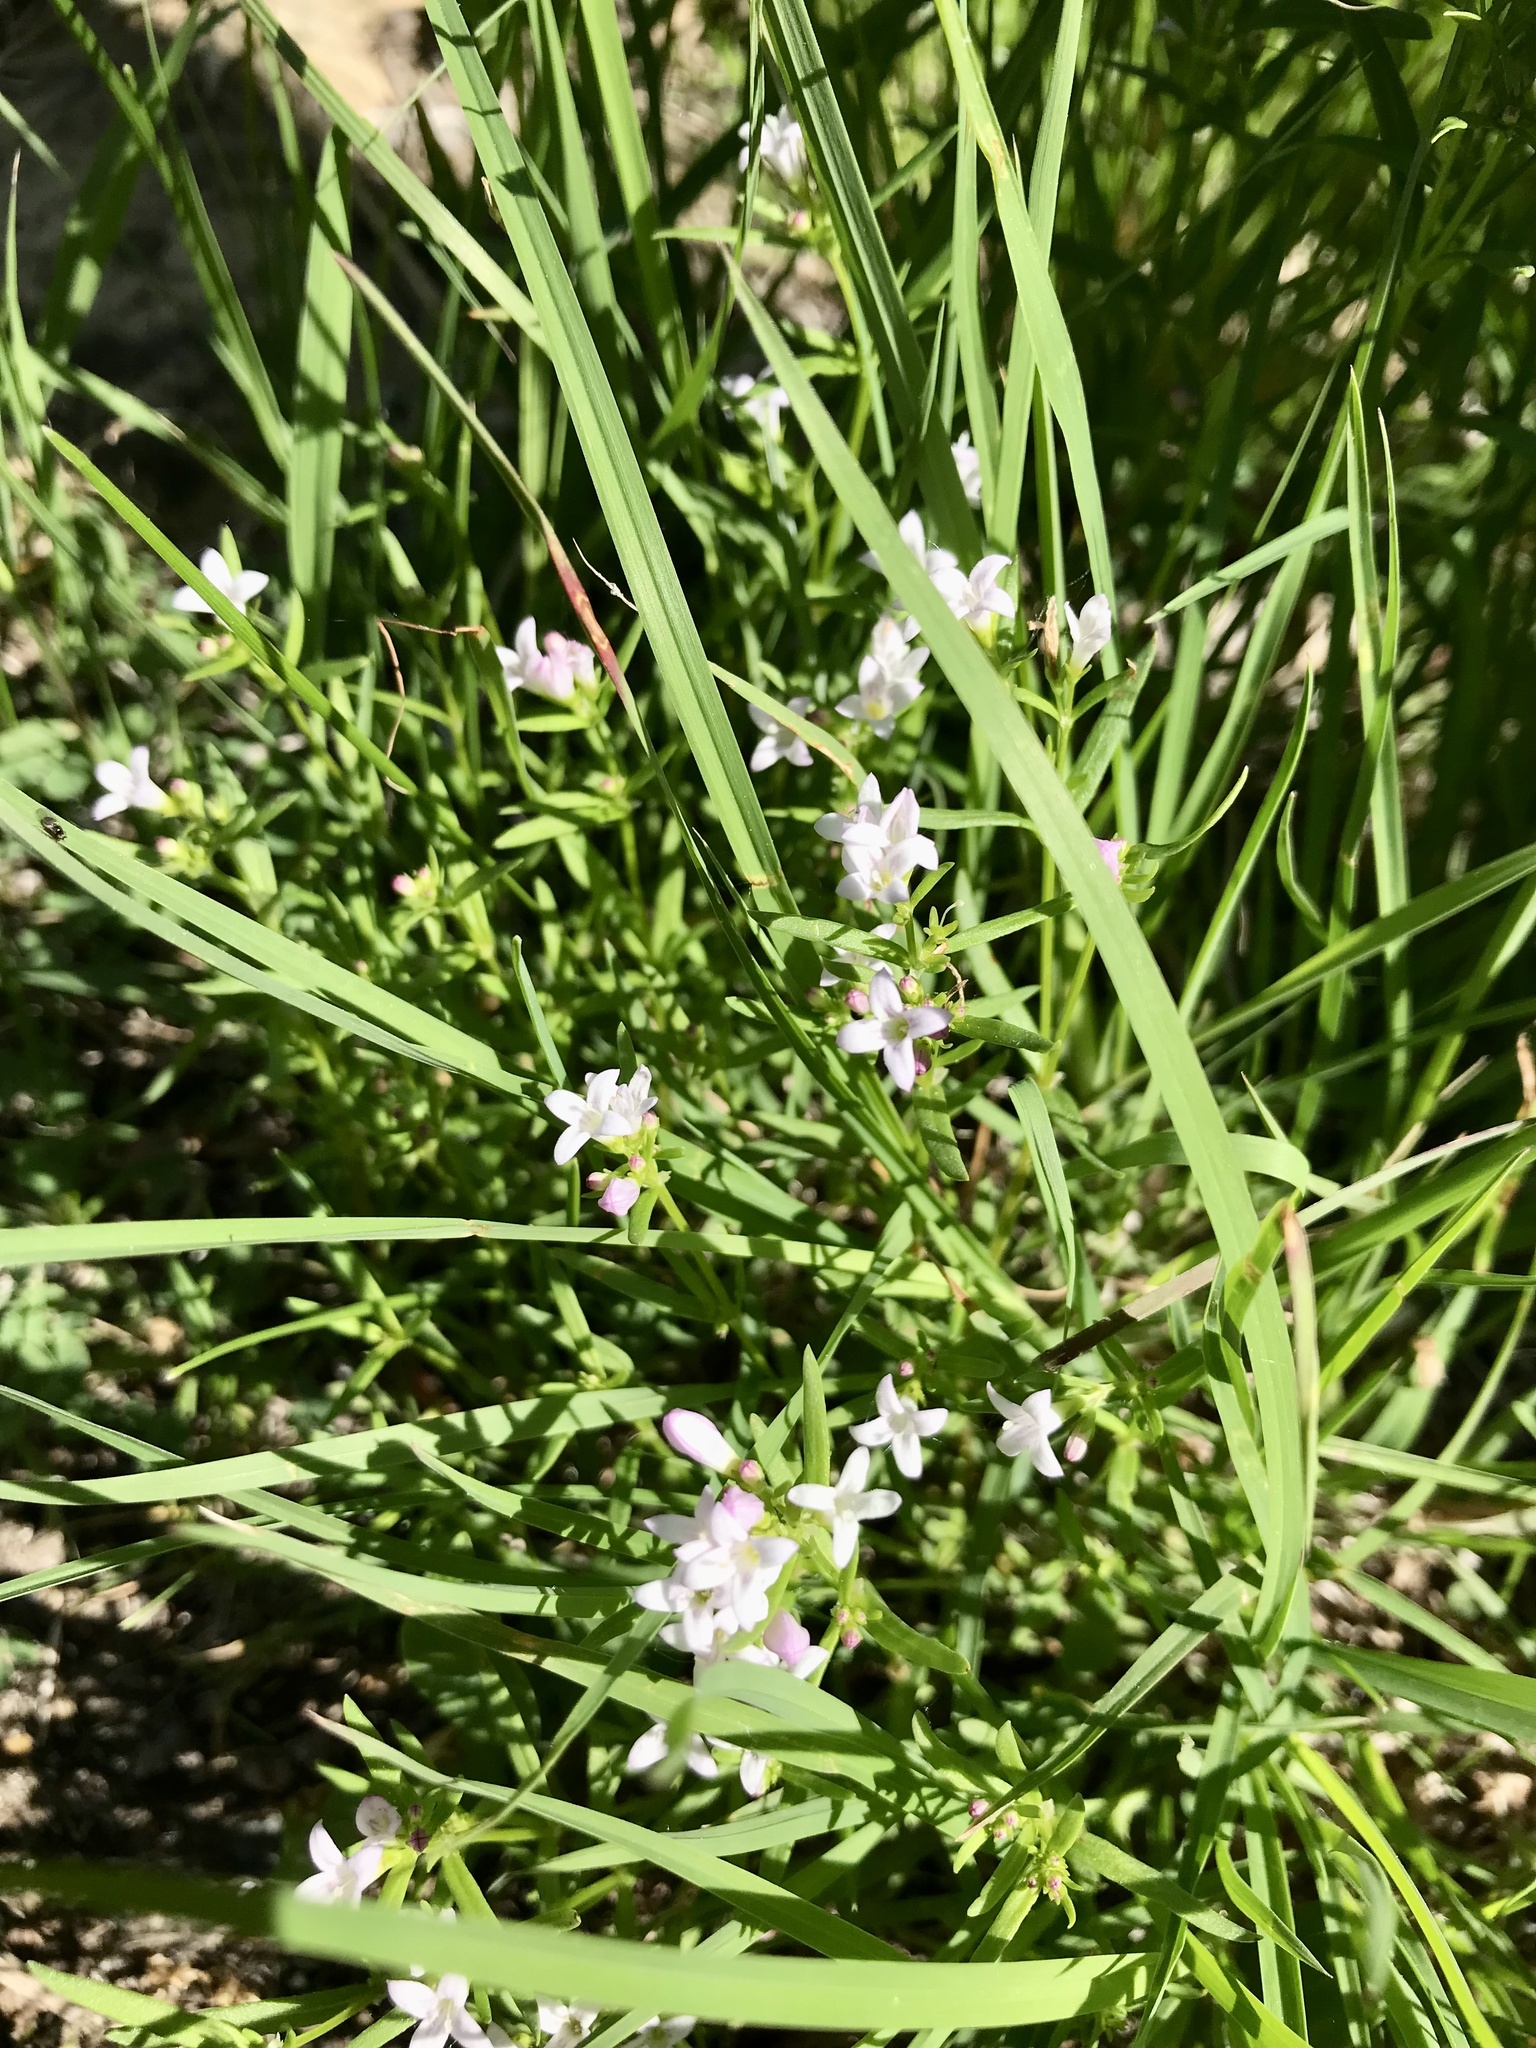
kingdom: Plantae
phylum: Tracheophyta
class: Magnoliopsida
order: Gentianales
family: Rubiaceae
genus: Houstonia
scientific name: Houstonia longifolia
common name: Long-leaved bluets
